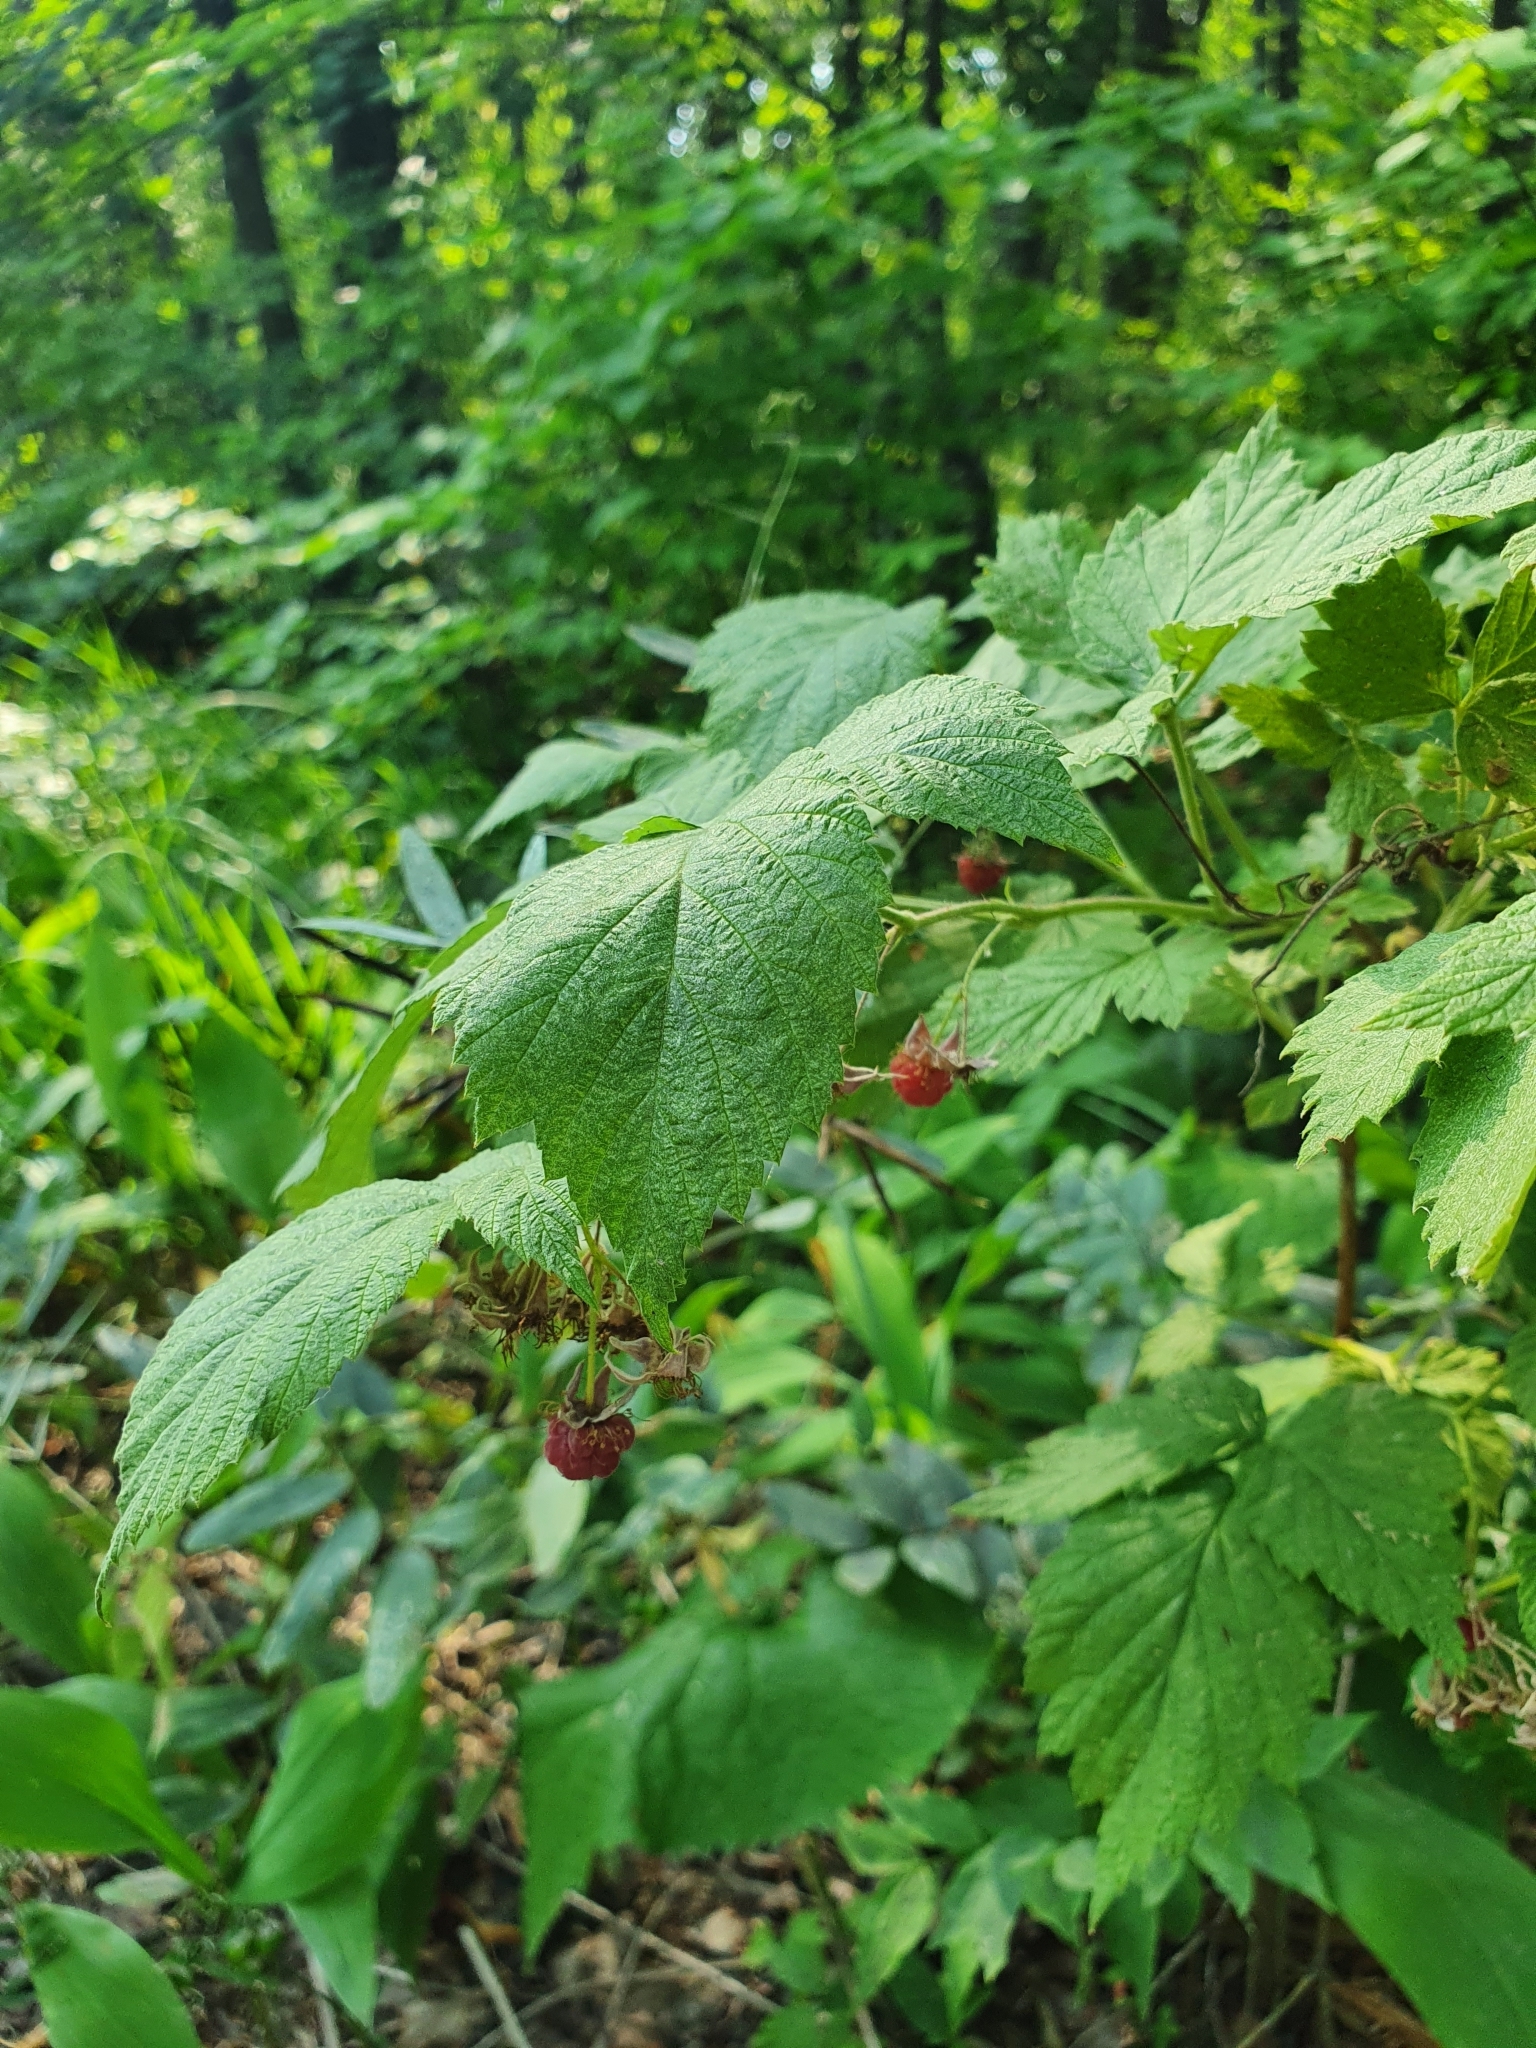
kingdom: Plantae
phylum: Tracheophyta
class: Magnoliopsida
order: Rosales
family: Rosaceae
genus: Rubus
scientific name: Rubus idaeus
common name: Raspberry
